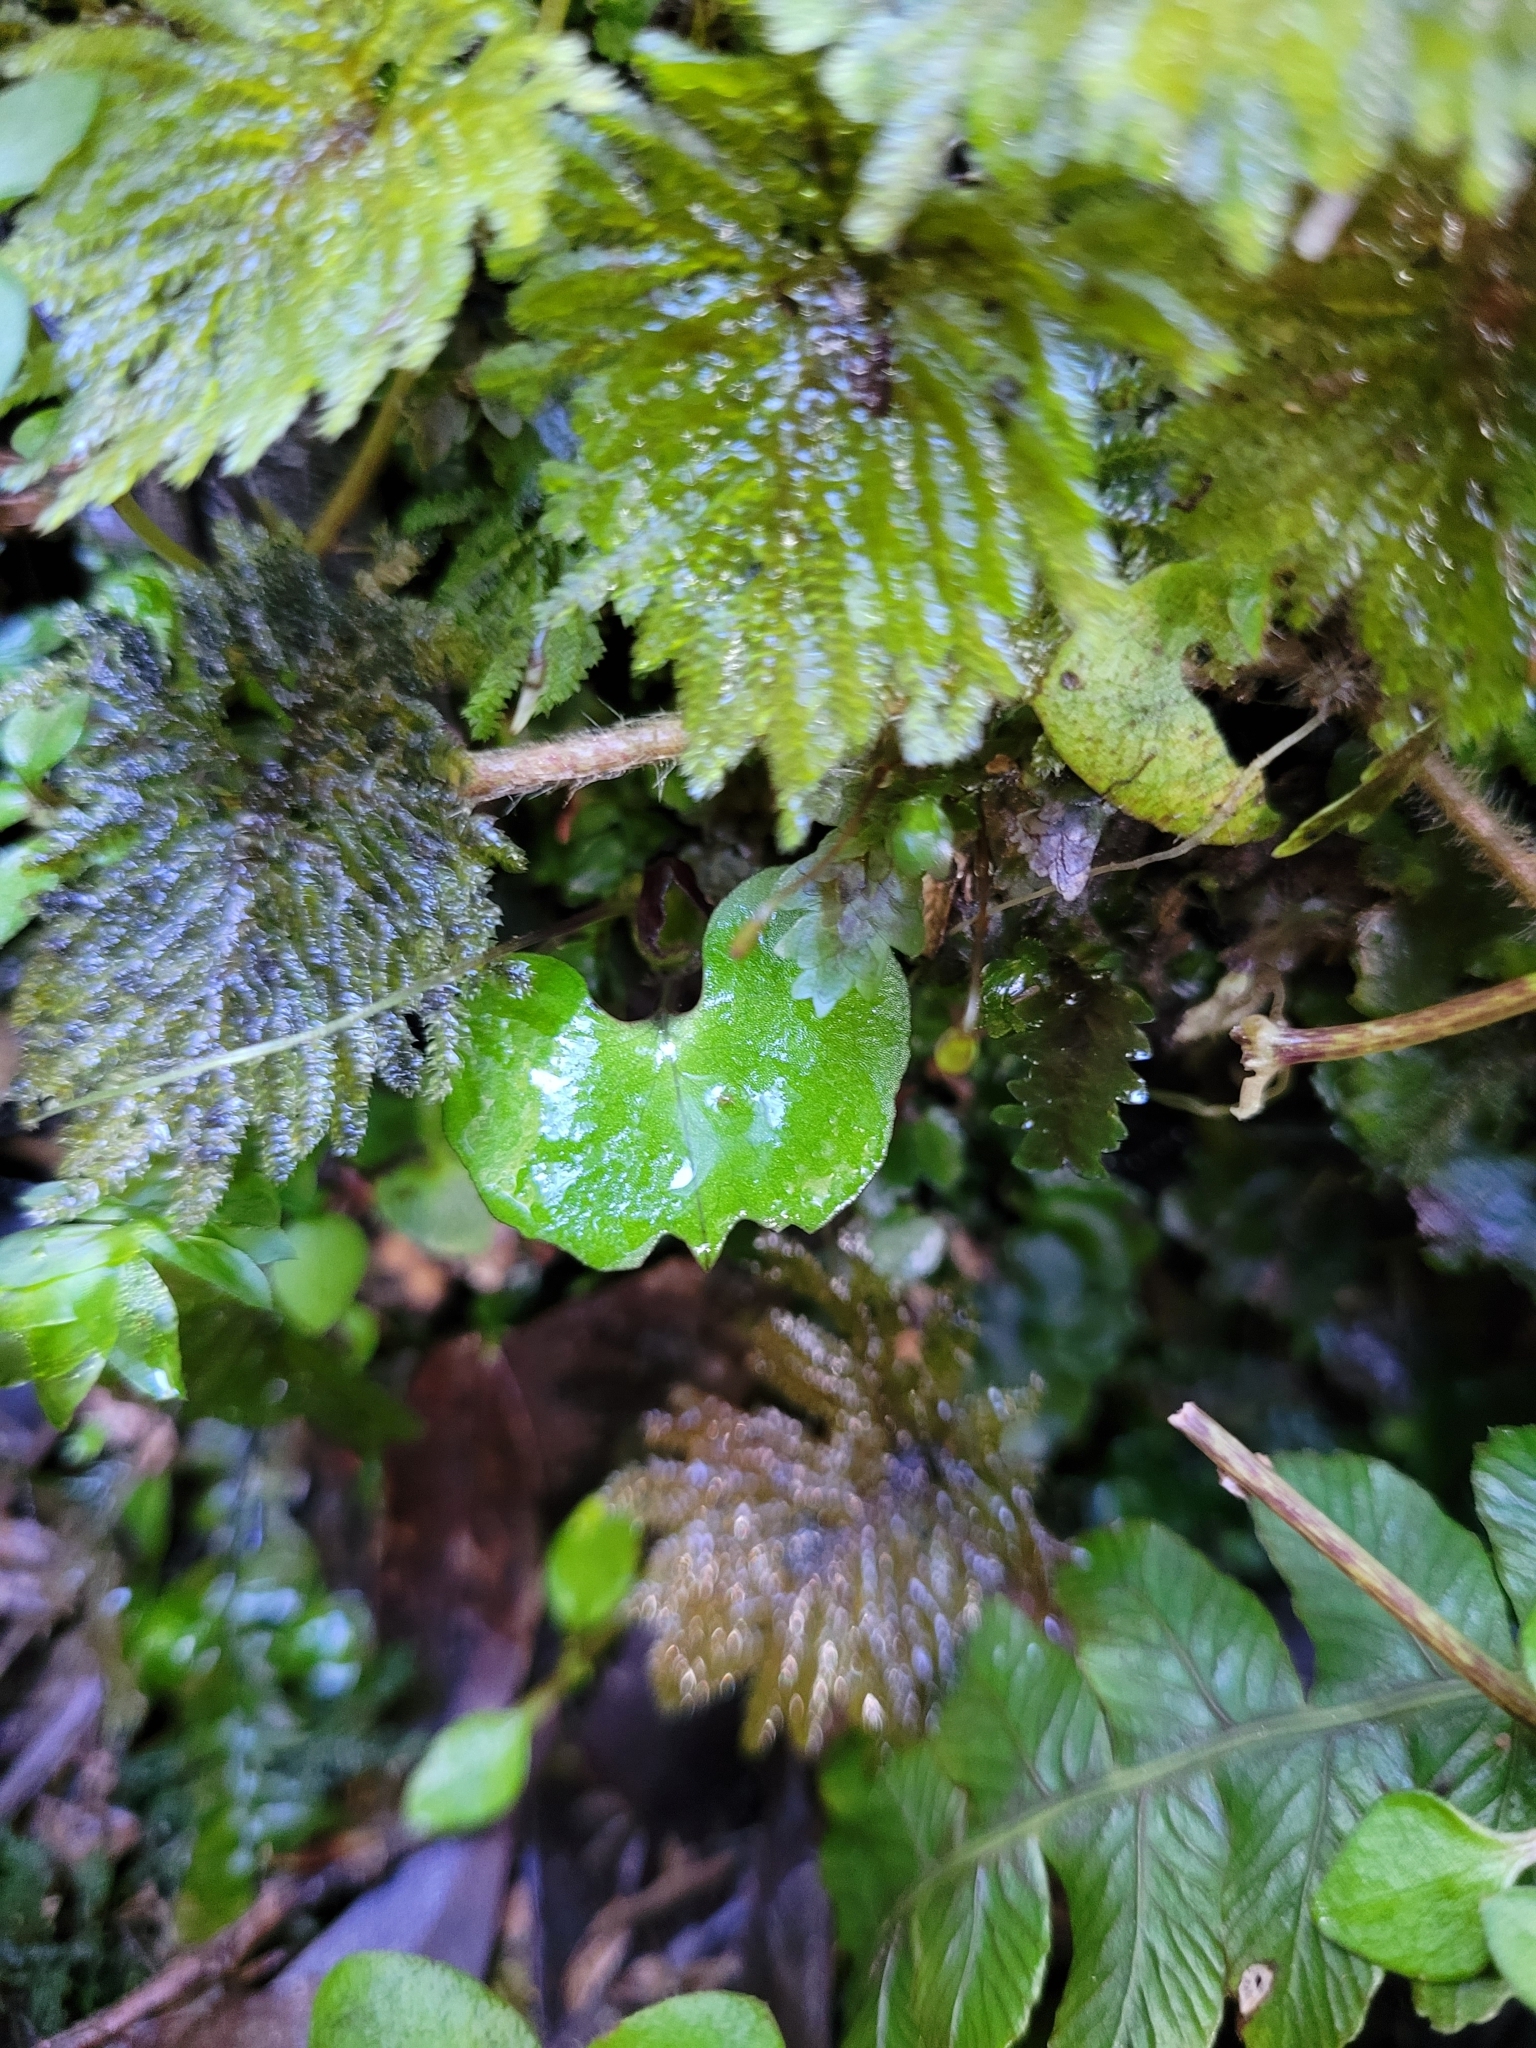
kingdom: Plantae
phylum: Tracheophyta
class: Liliopsida
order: Asparagales
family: Orchidaceae
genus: Corybas
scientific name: Corybas vitreus
